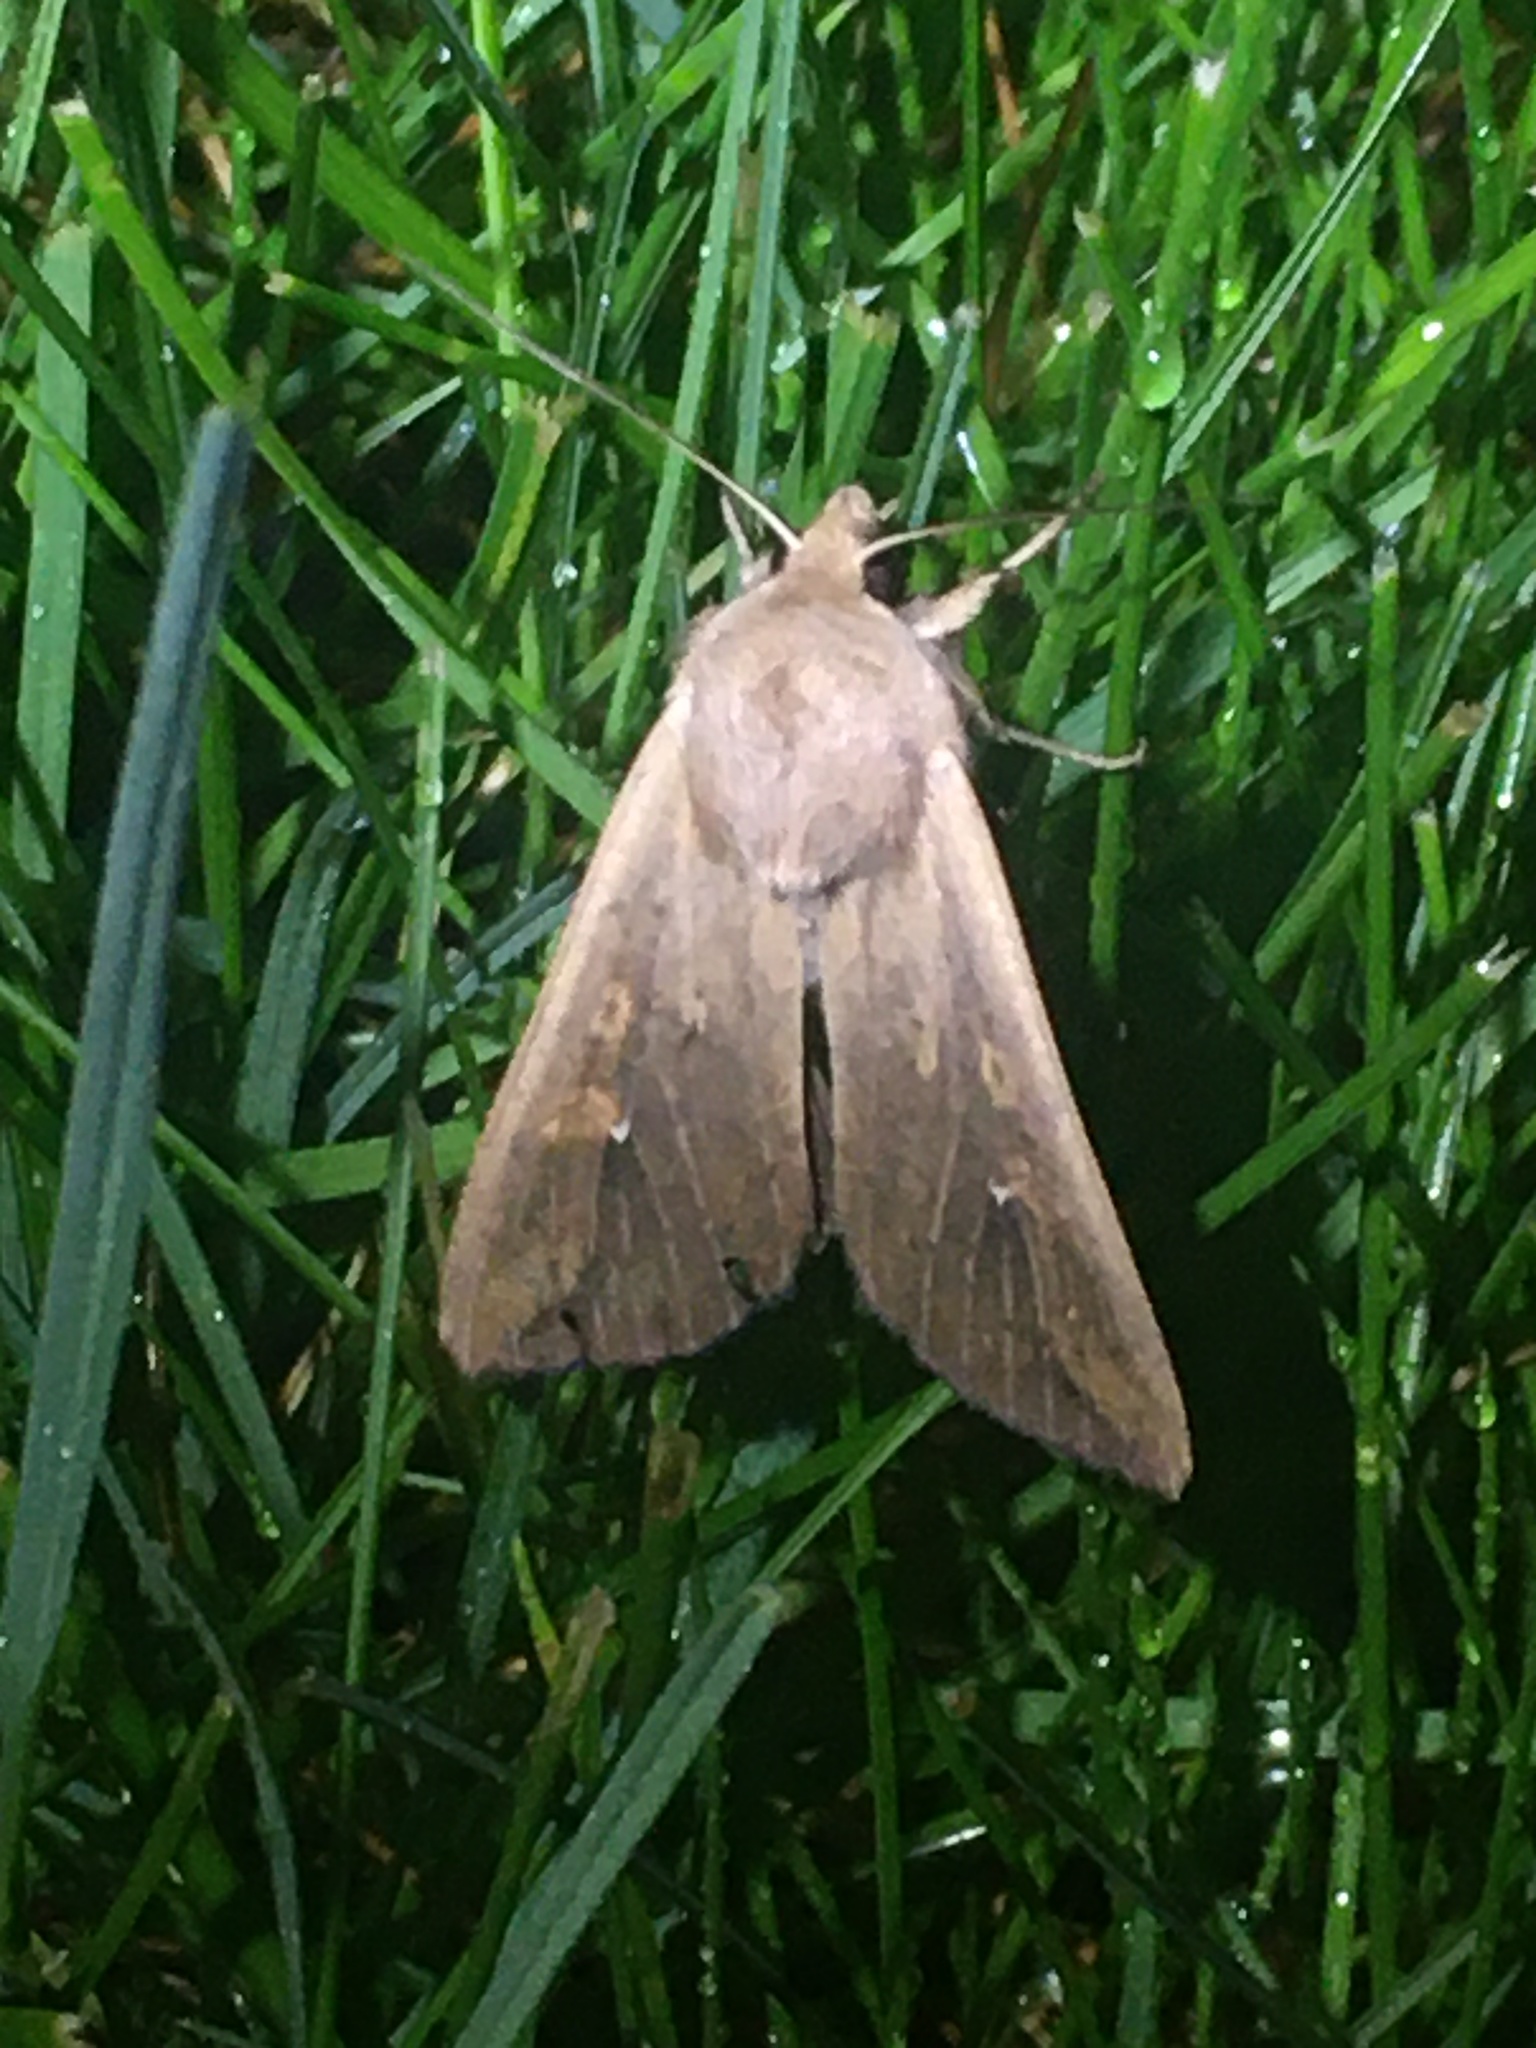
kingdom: Animalia
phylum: Arthropoda
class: Insecta
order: Lepidoptera
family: Noctuidae
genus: Mythimna
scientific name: Mythimna unipuncta
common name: White-speck
